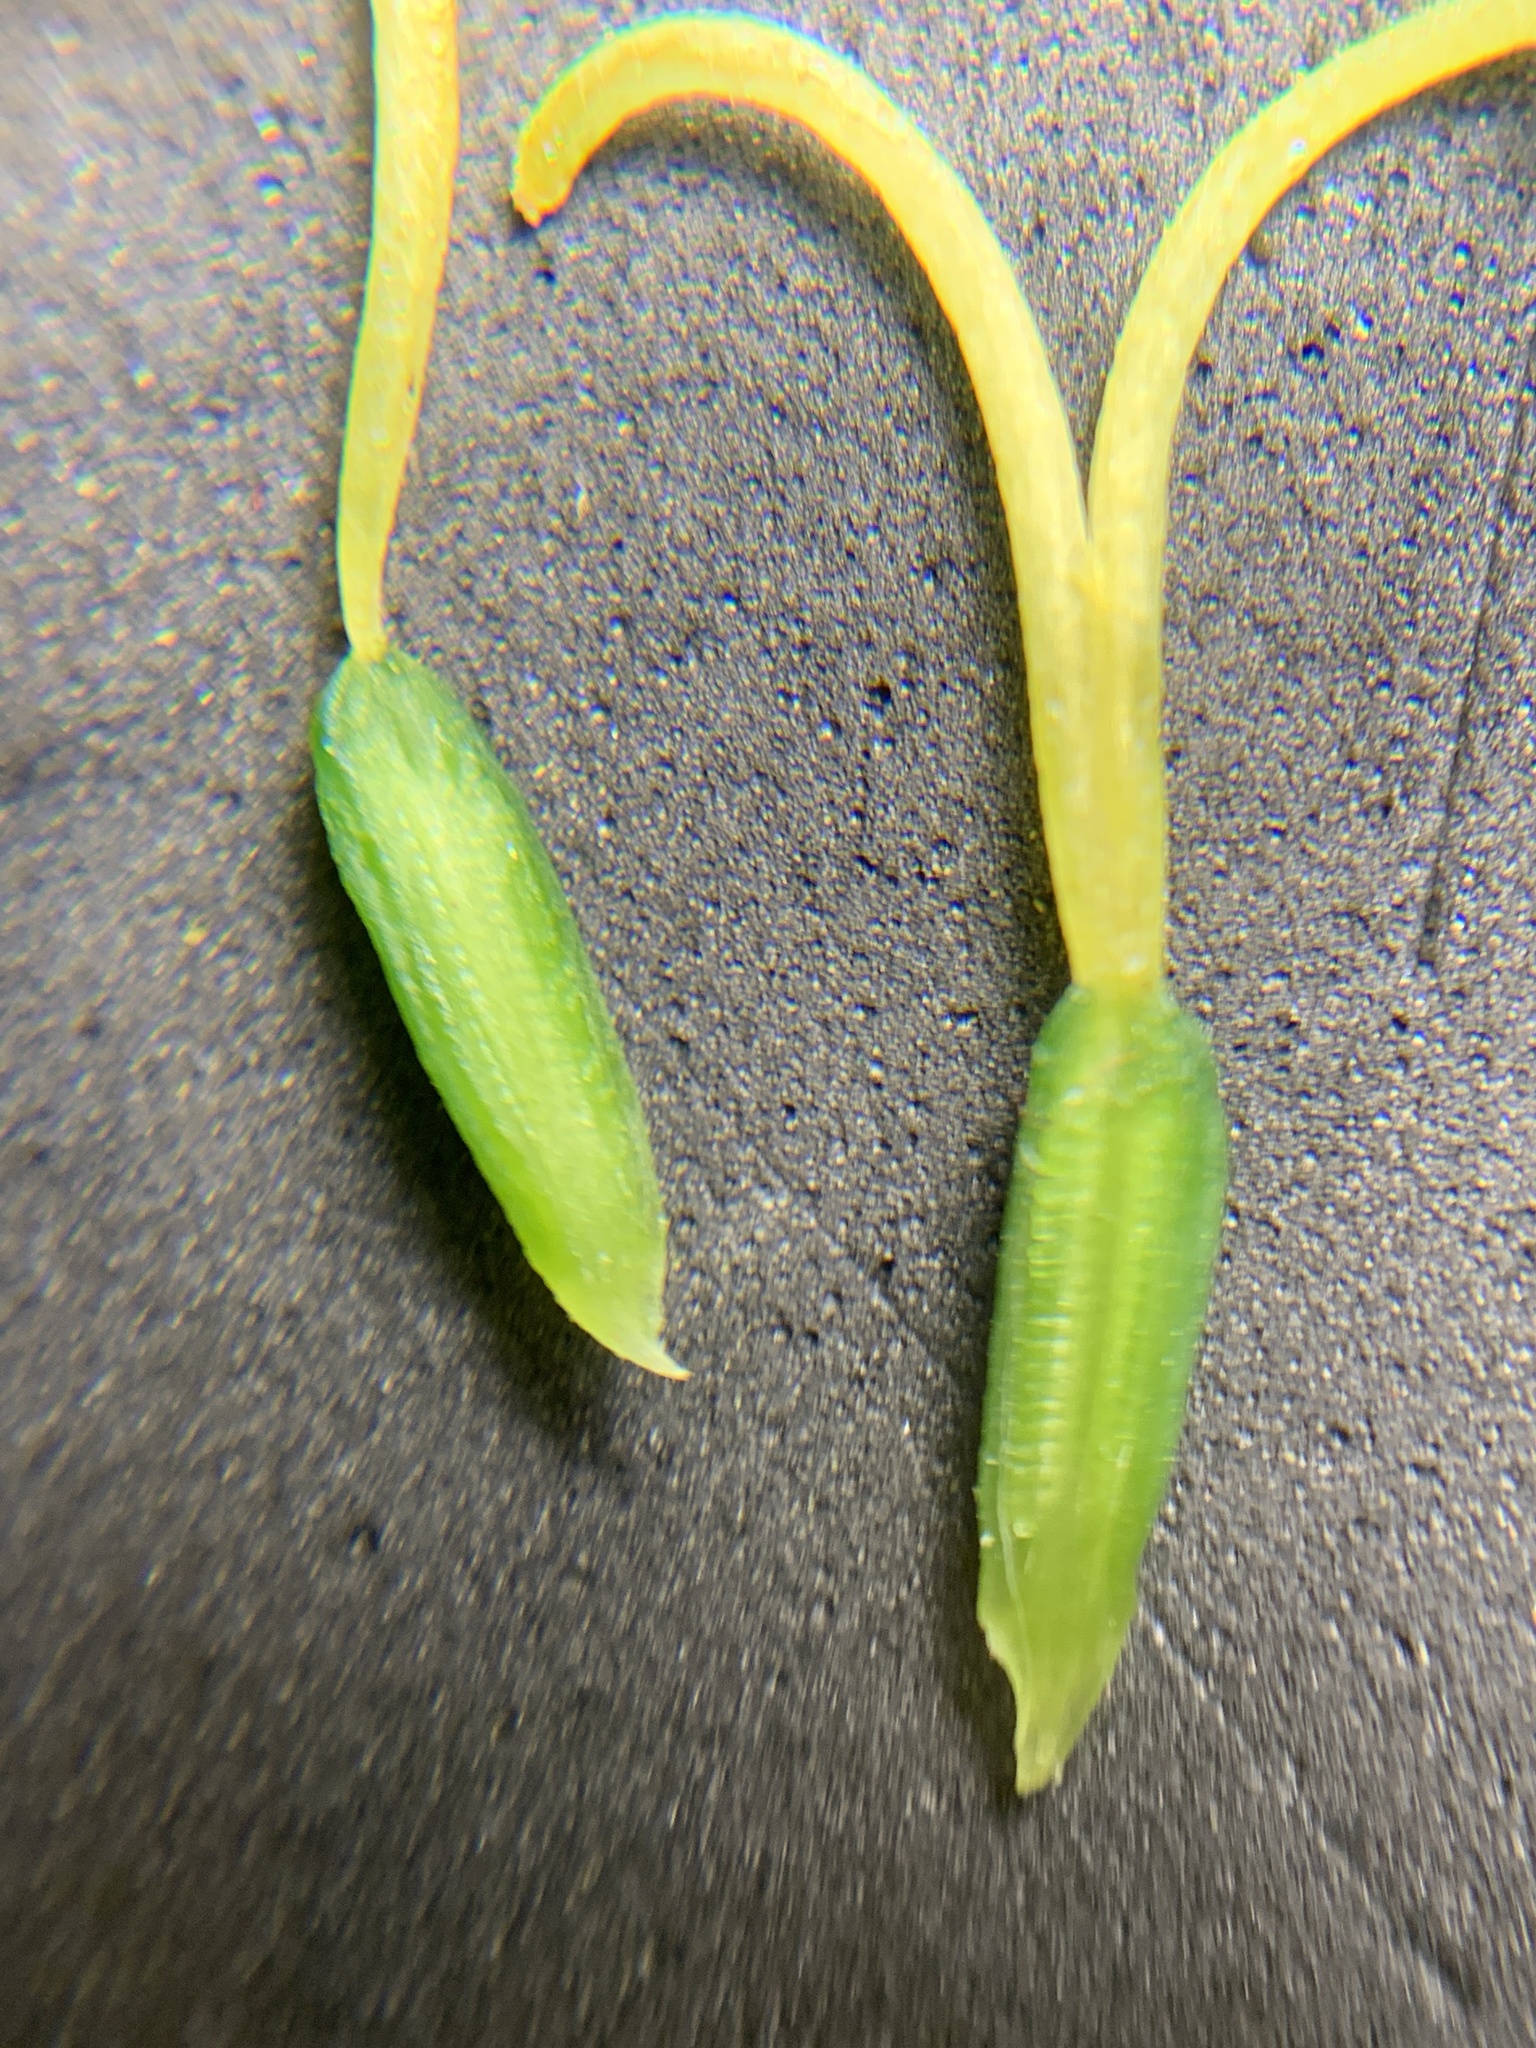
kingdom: Plantae
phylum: Tracheophyta
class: Liliopsida
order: Liliales
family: Liliaceae
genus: Fritillaria
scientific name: Fritillaria affinis
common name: Ojai fritillary
